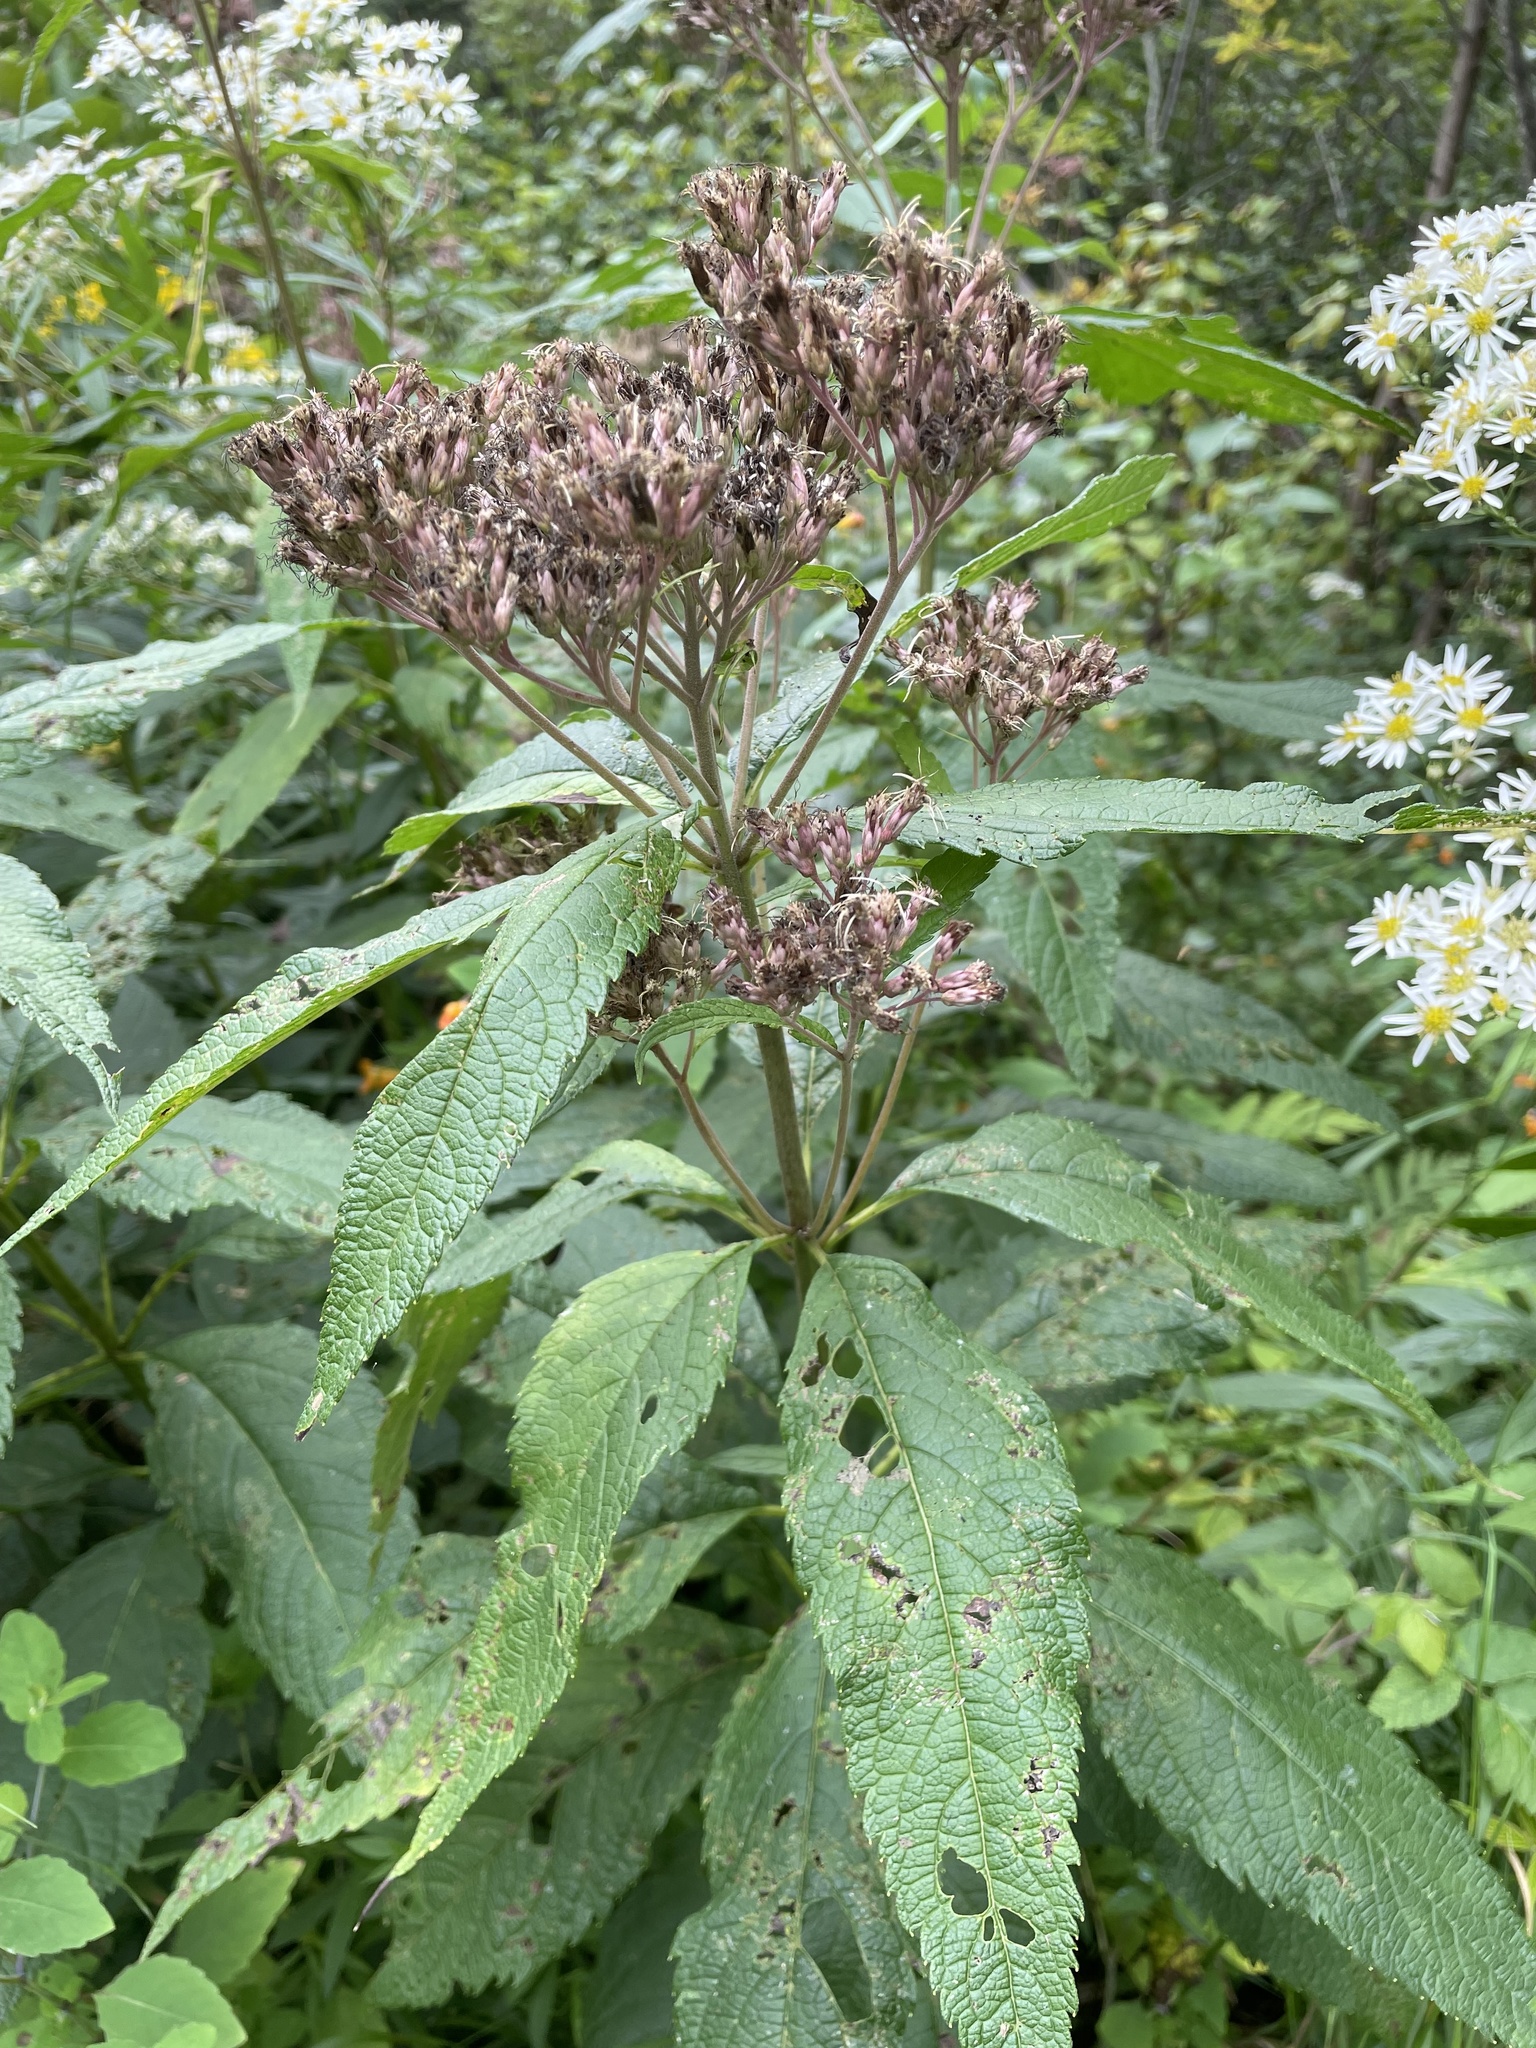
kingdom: Plantae
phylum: Tracheophyta
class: Magnoliopsida
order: Asterales
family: Asteraceae
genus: Eutrochium
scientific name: Eutrochium maculatum
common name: Spotted joe pye weed
